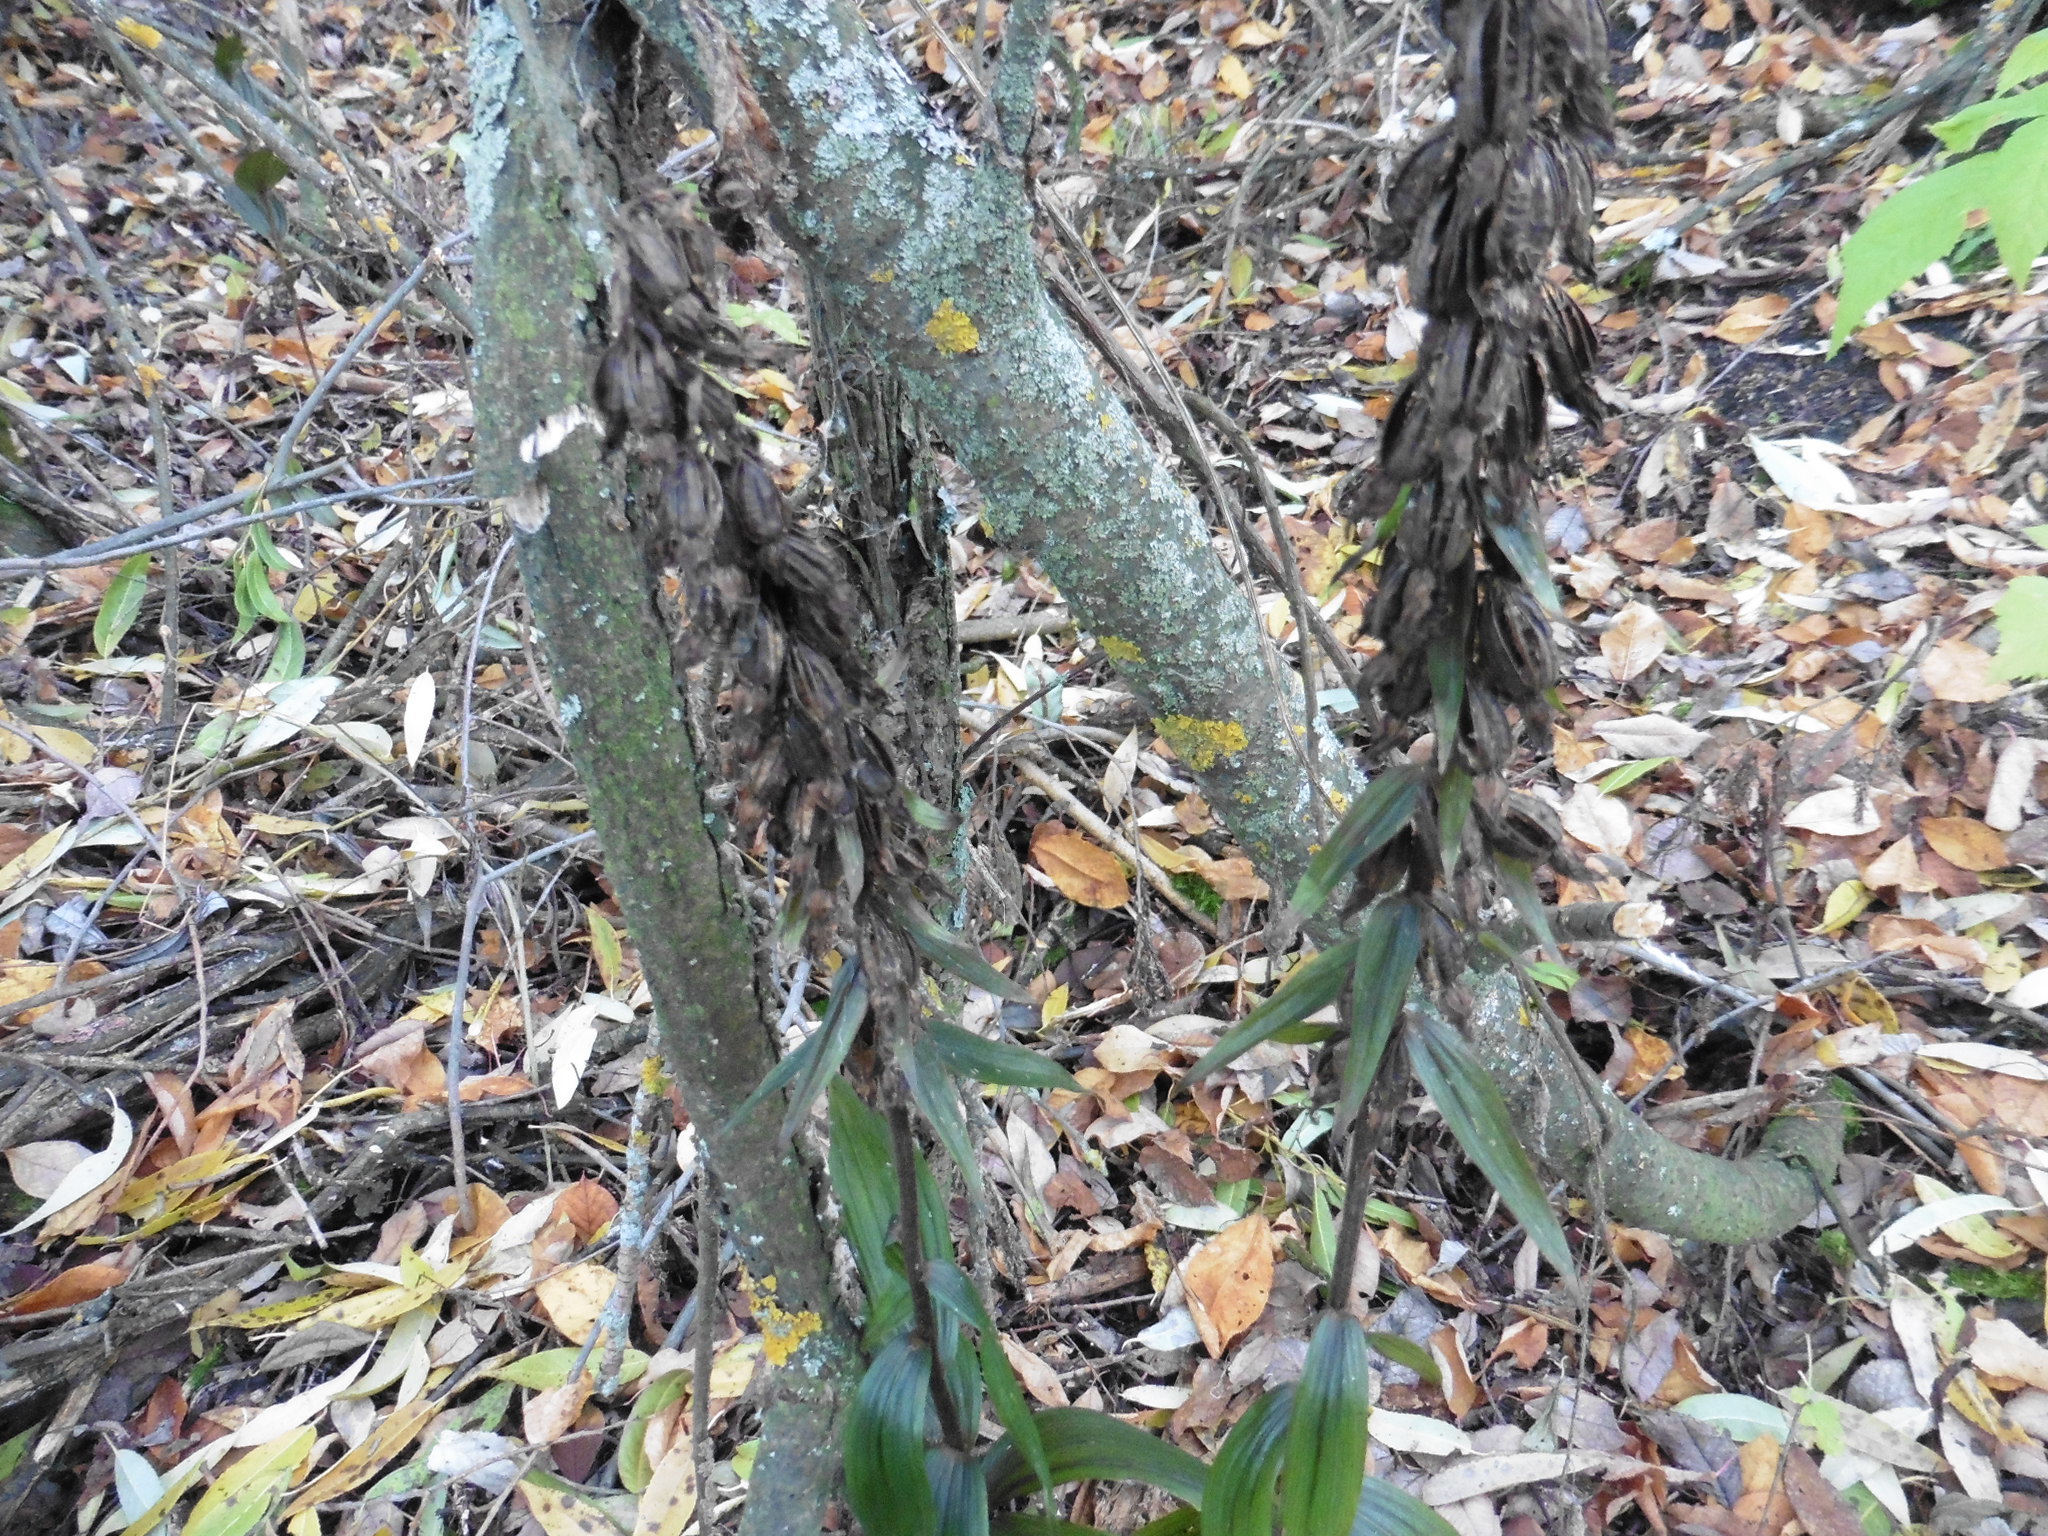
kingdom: Plantae
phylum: Tracheophyta
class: Liliopsida
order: Asparagales
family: Orchidaceae
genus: Epipactis
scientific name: Epipactis helleborine
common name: Broad-leaved helleborine
